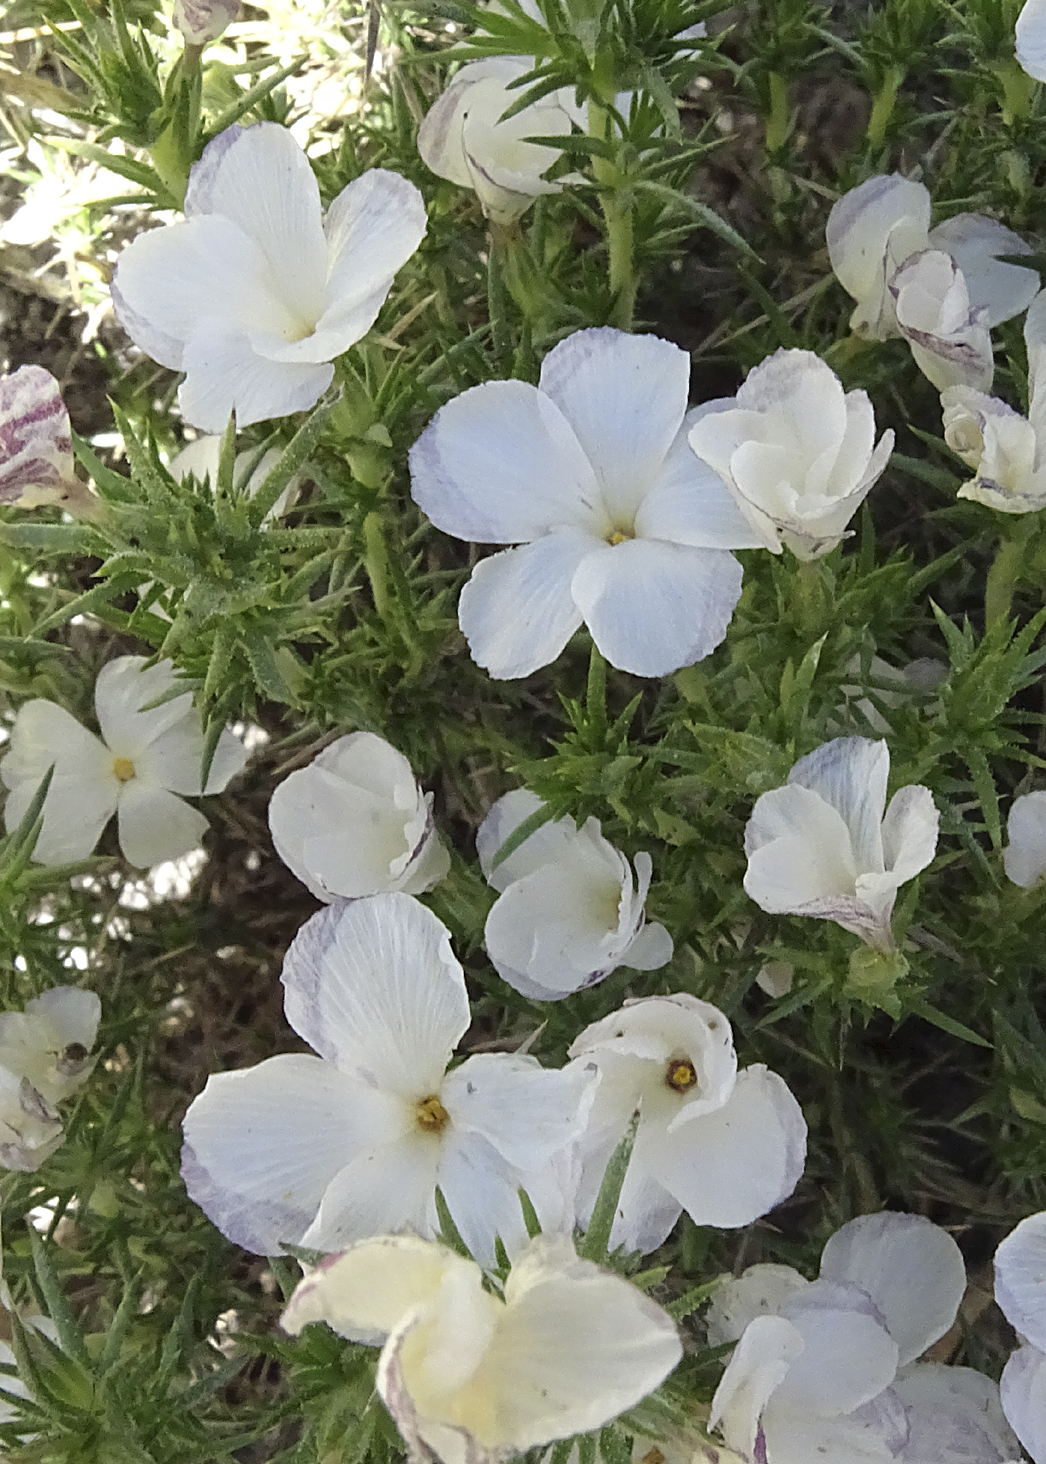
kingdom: Plantae
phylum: Tracheophyta
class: Magnoliopsida
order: Ericales
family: Polemoniaceae
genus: Linanthus
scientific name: Linanthus pungens
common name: Granite prickly phlox
